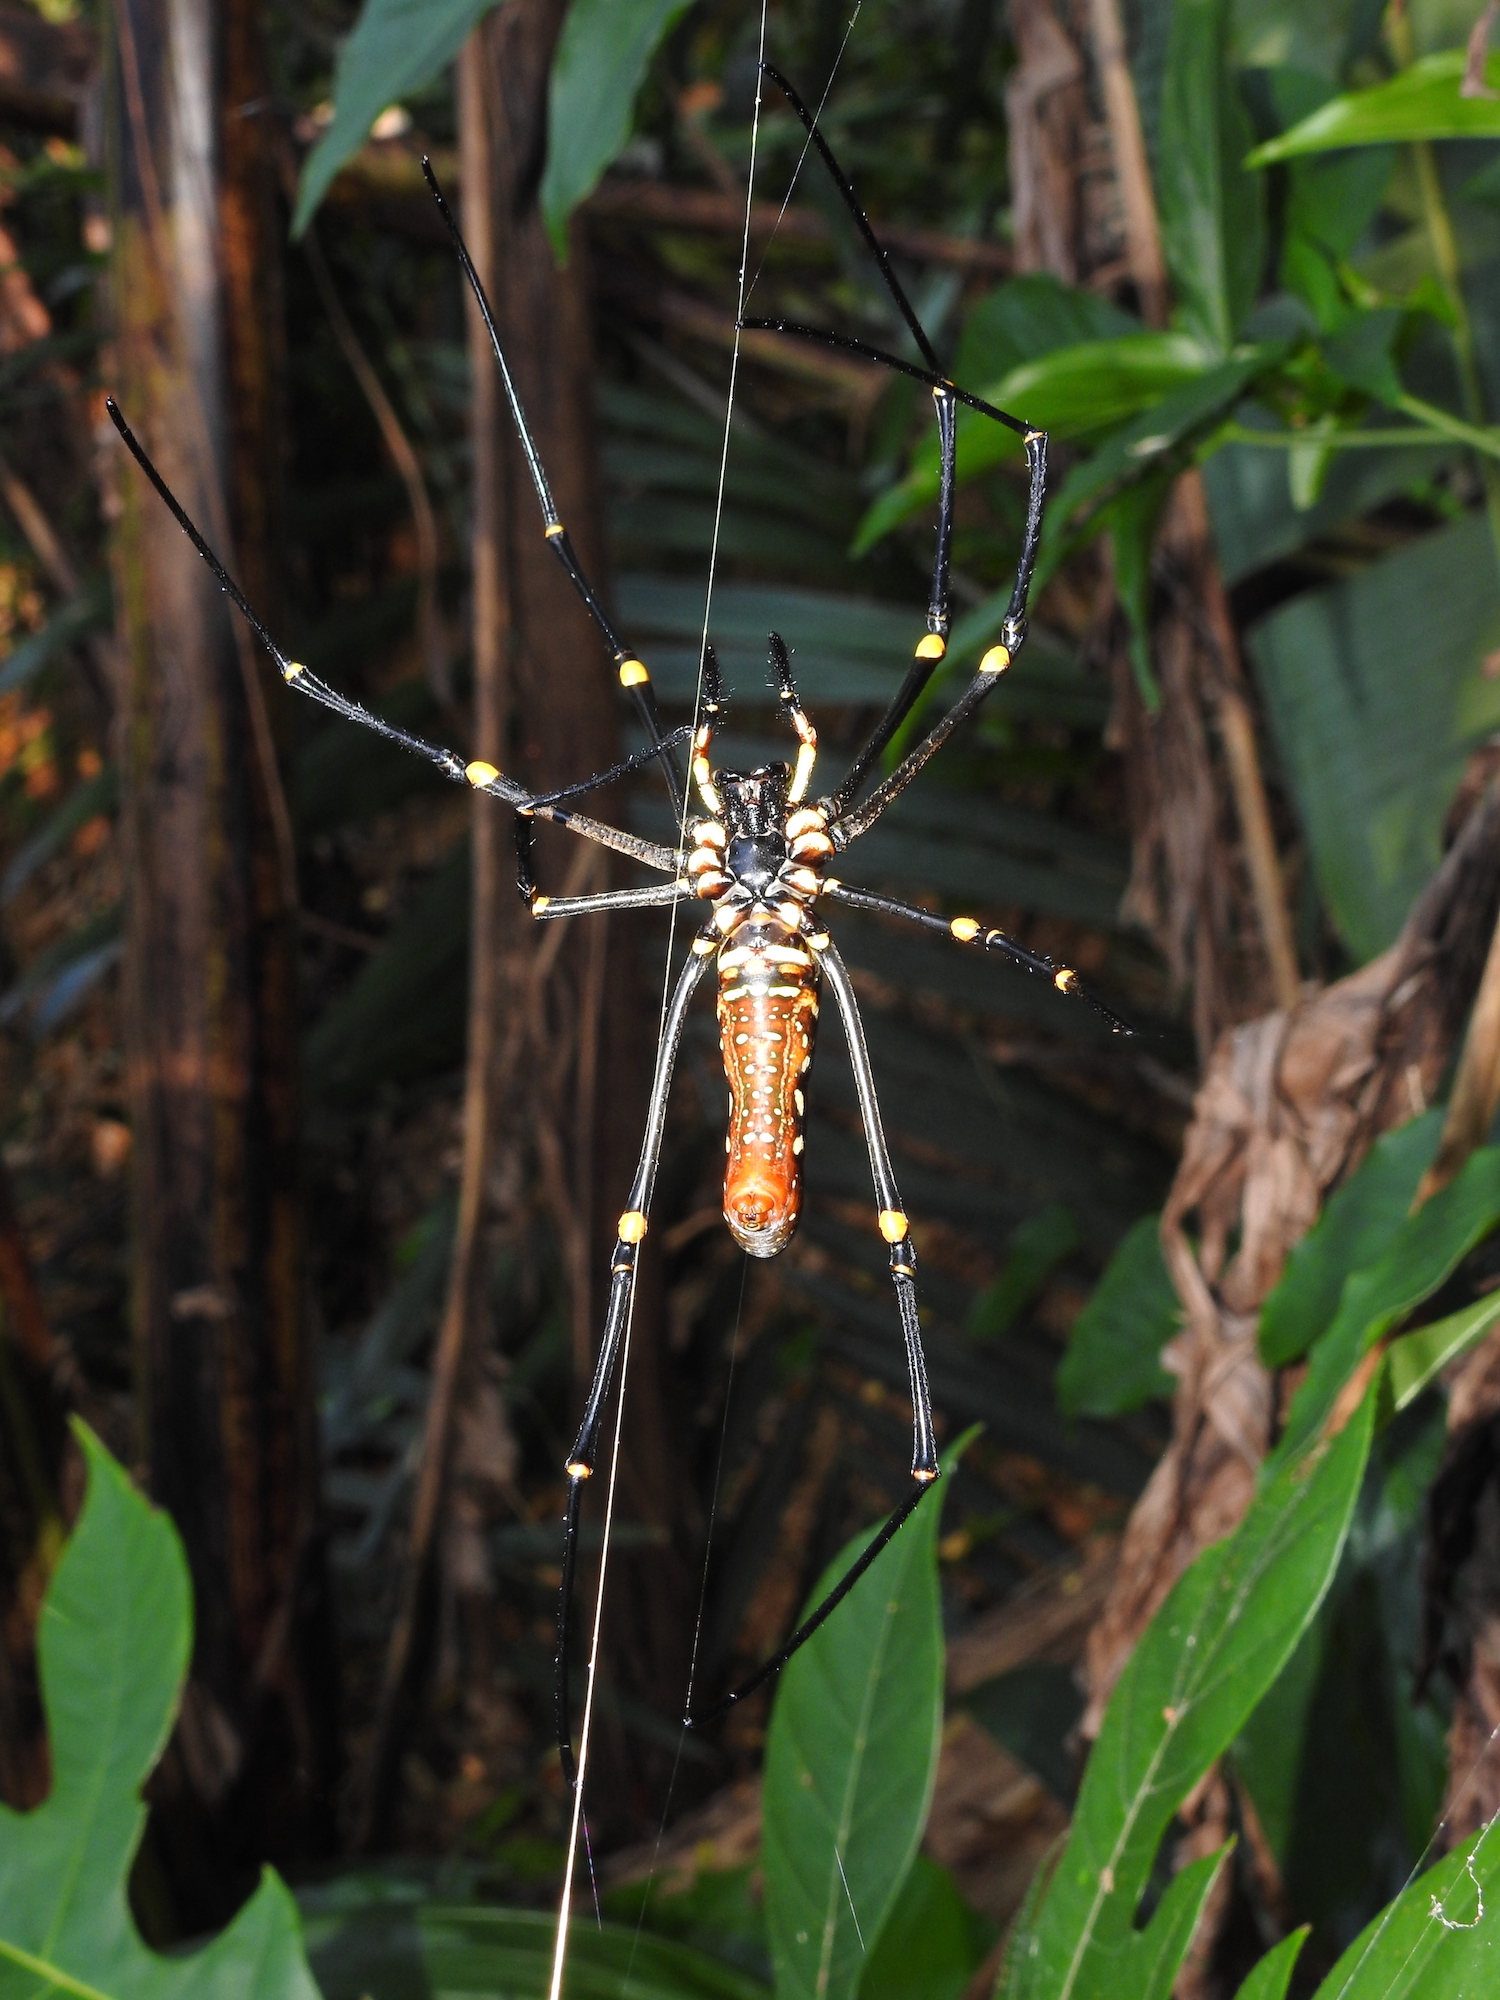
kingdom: Animalia
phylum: Arthropoda
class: Arachnida
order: Araneae
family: Araneidae
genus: Nephila
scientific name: Nephila pilipes
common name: Giant golden orb weaver
